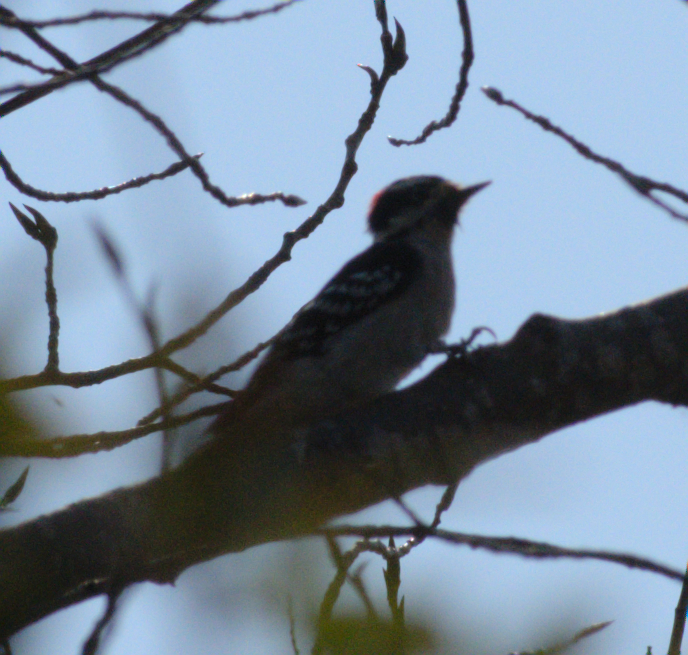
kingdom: Animalia
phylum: Chordata
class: Aves
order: Piciformes
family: Picidae
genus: Dryobates
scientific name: Dryobates pubescens
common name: Downy woodpecker
